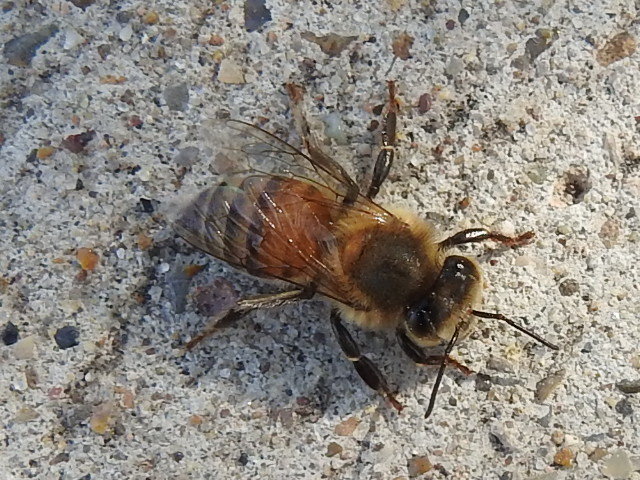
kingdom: Animalia
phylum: Arthropoda
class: Insecta
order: Hymenoptera
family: Apidae
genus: Apis
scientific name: Apis mellifera
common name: Honey bee
